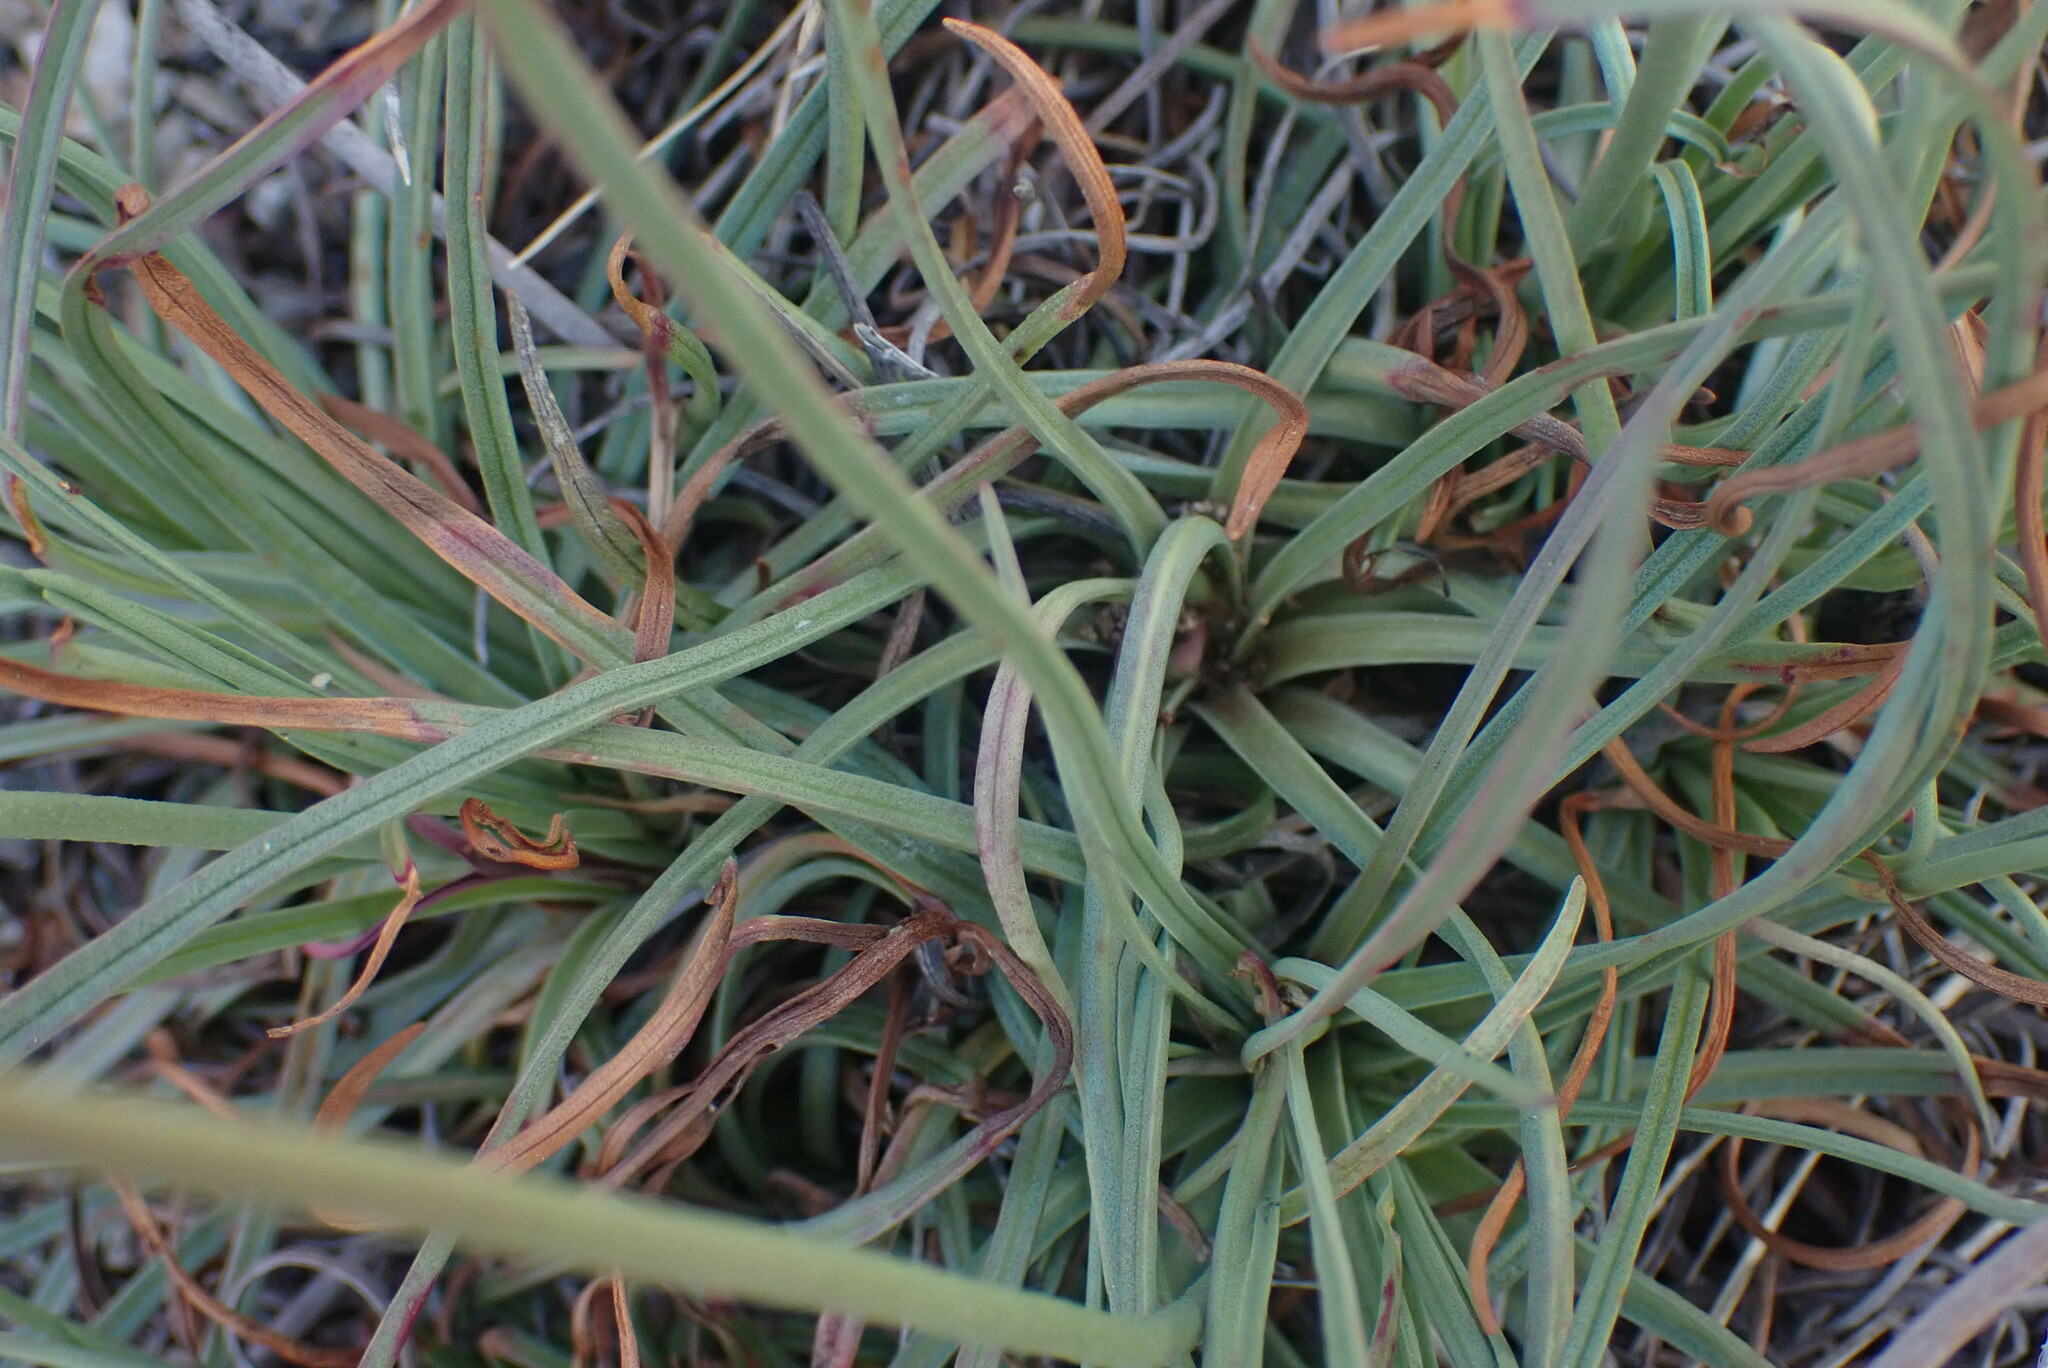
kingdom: Plantae
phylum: Tracheophyta
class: Magnoliopsida
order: Caryophyllales
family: Plumbaginaceae
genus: Armeria
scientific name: Armeria maritima
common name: Thrift
